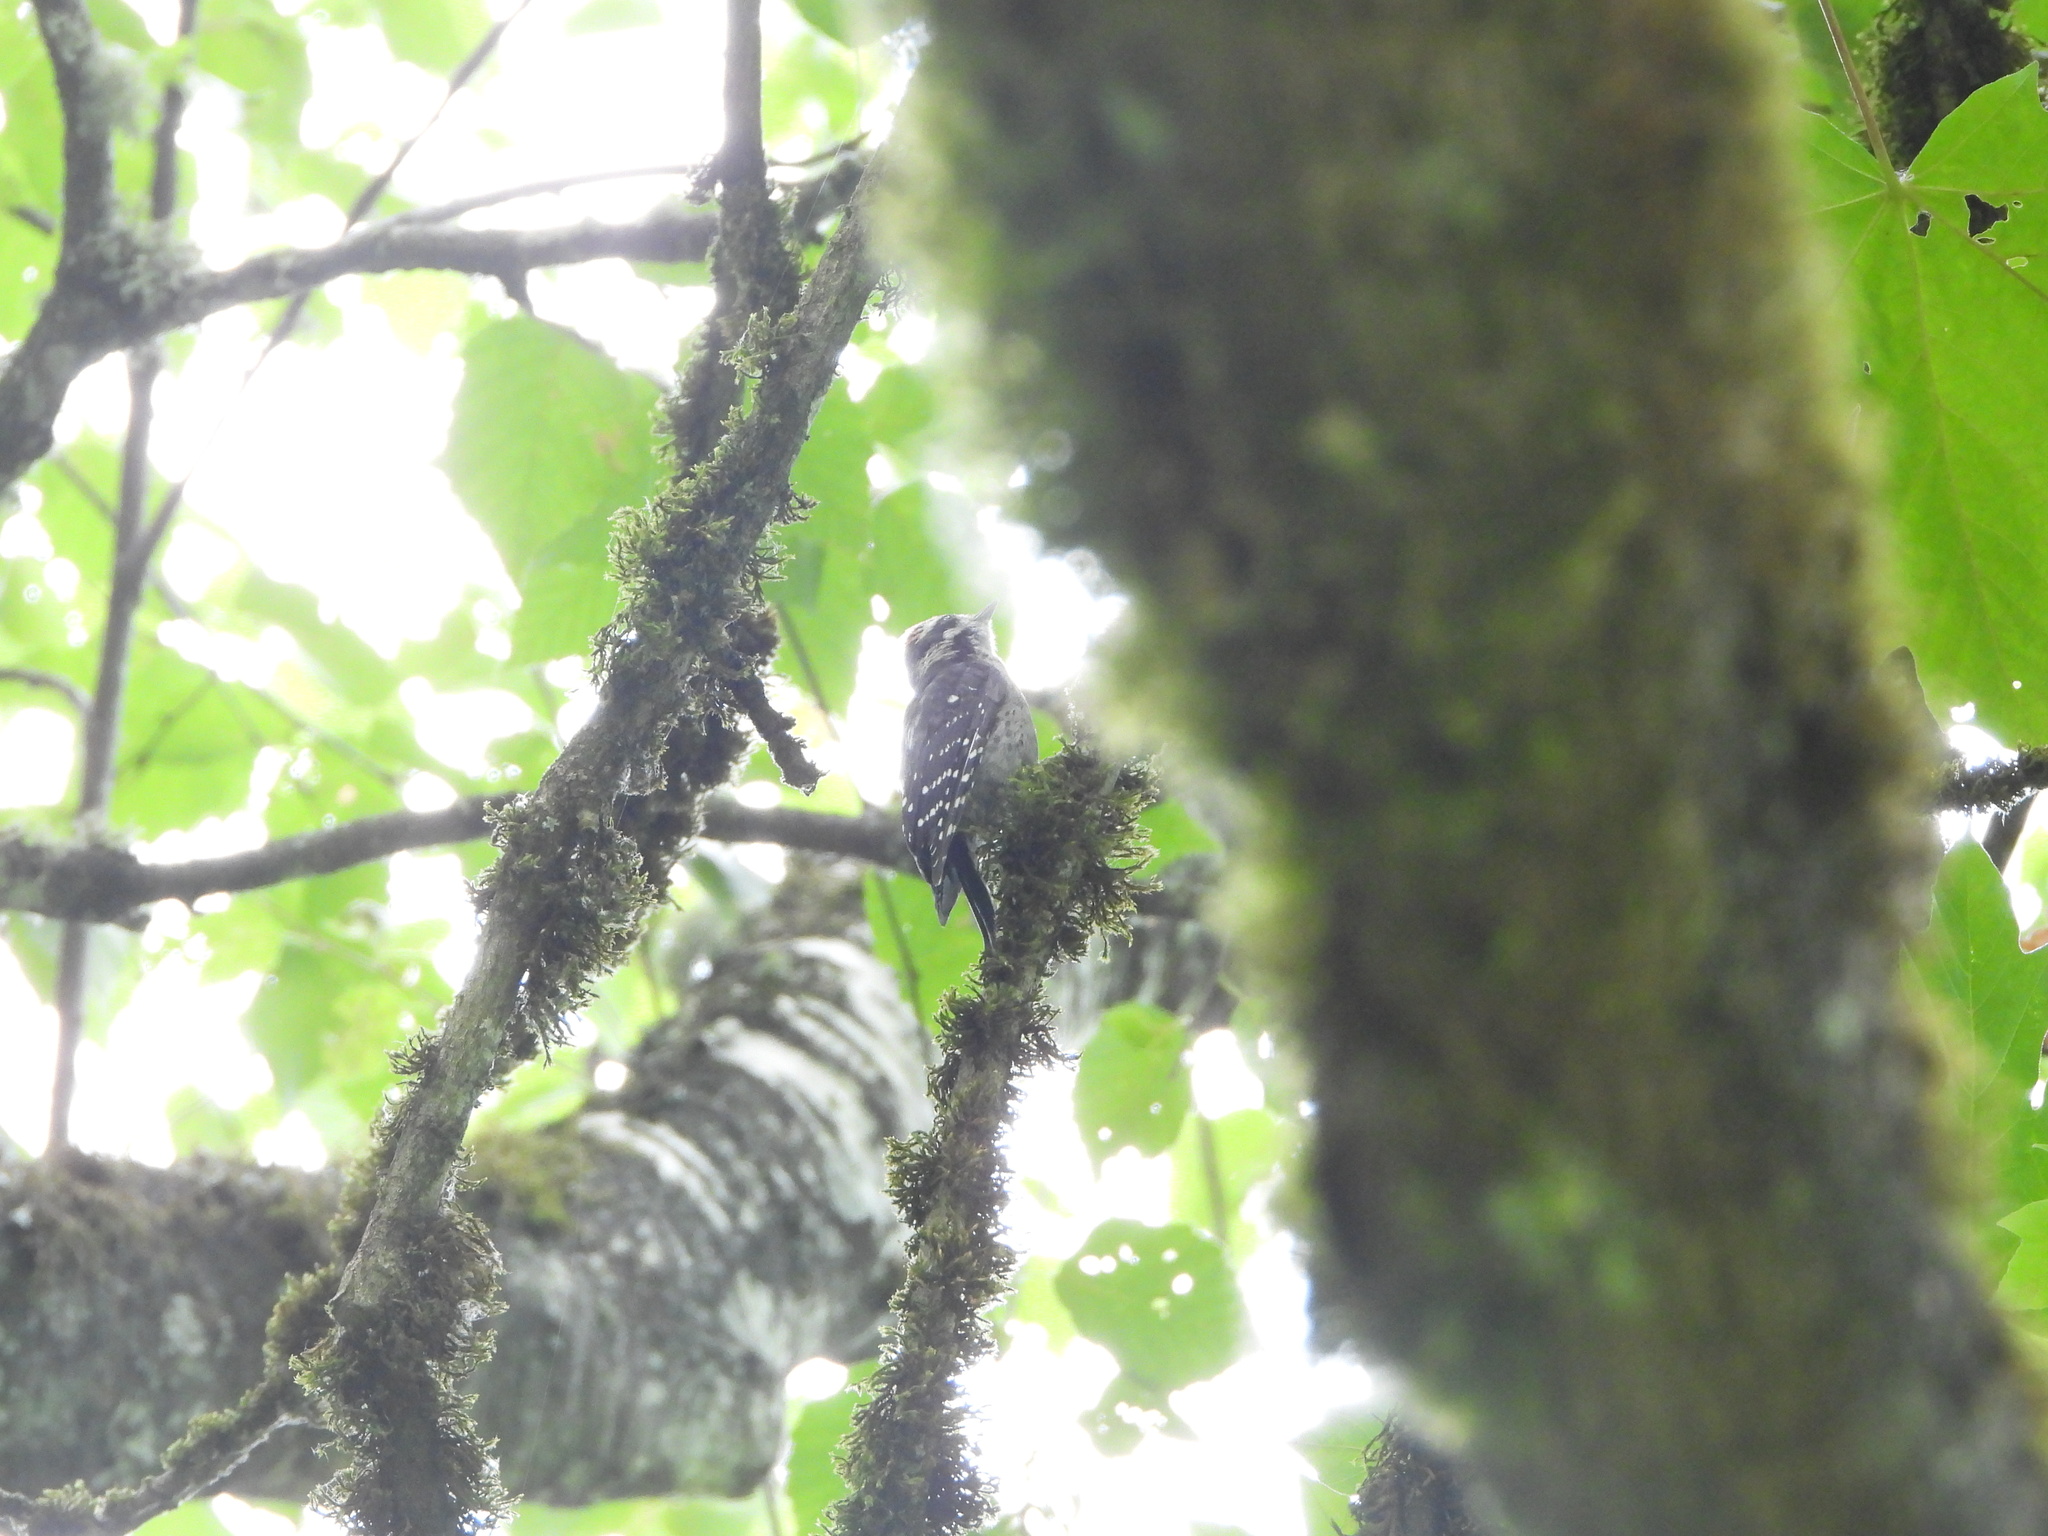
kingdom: Animalia
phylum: Chordata
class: Aves
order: Piciformes
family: Picidae
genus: Dryobates
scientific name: Dryobates pubescens
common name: Downy woodpecker
